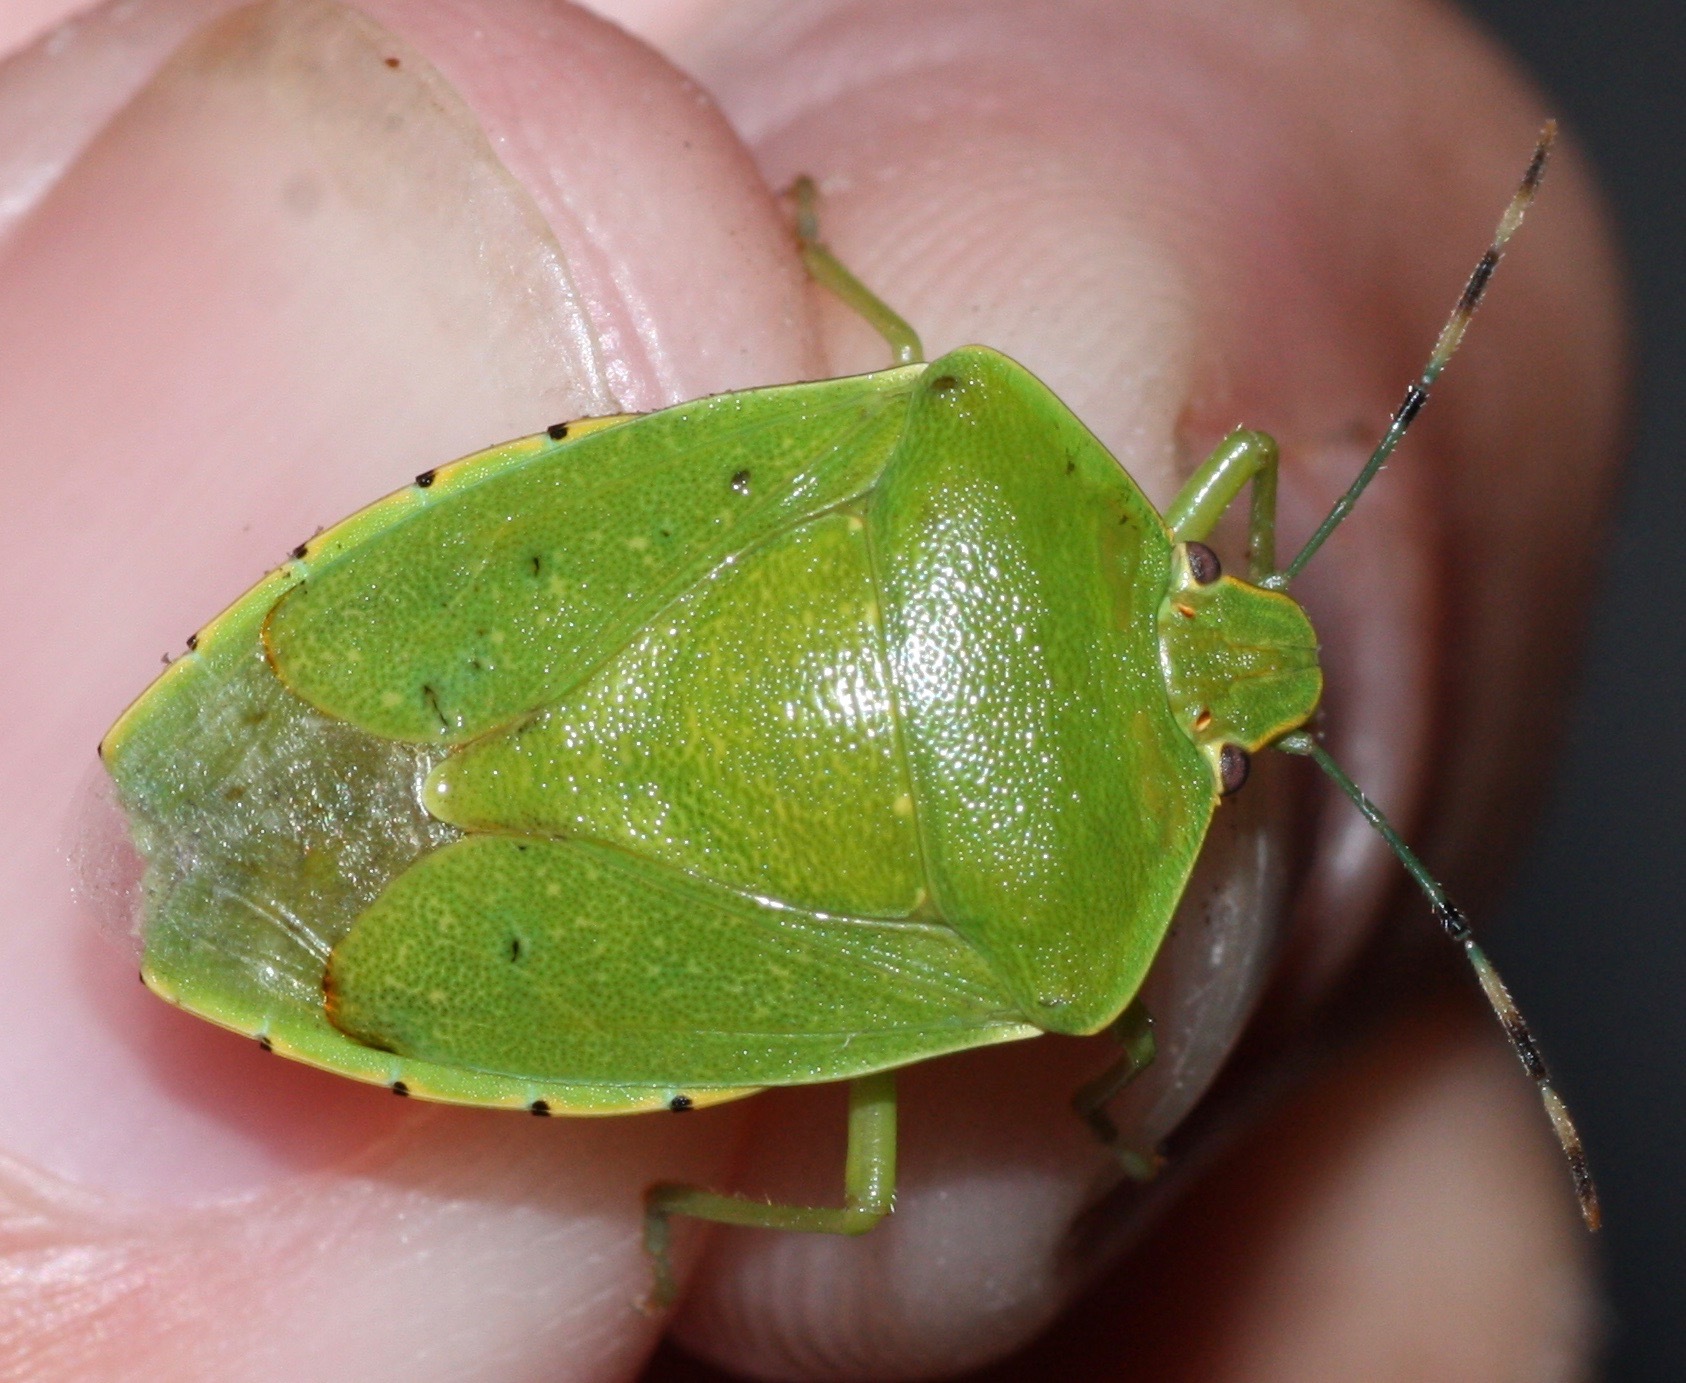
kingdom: Animalia
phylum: Arthropoda
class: Insecta
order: Hemiptera
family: Pentatomidae
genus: Chinavia
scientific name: Chinavia hilaris
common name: Green stink bug
